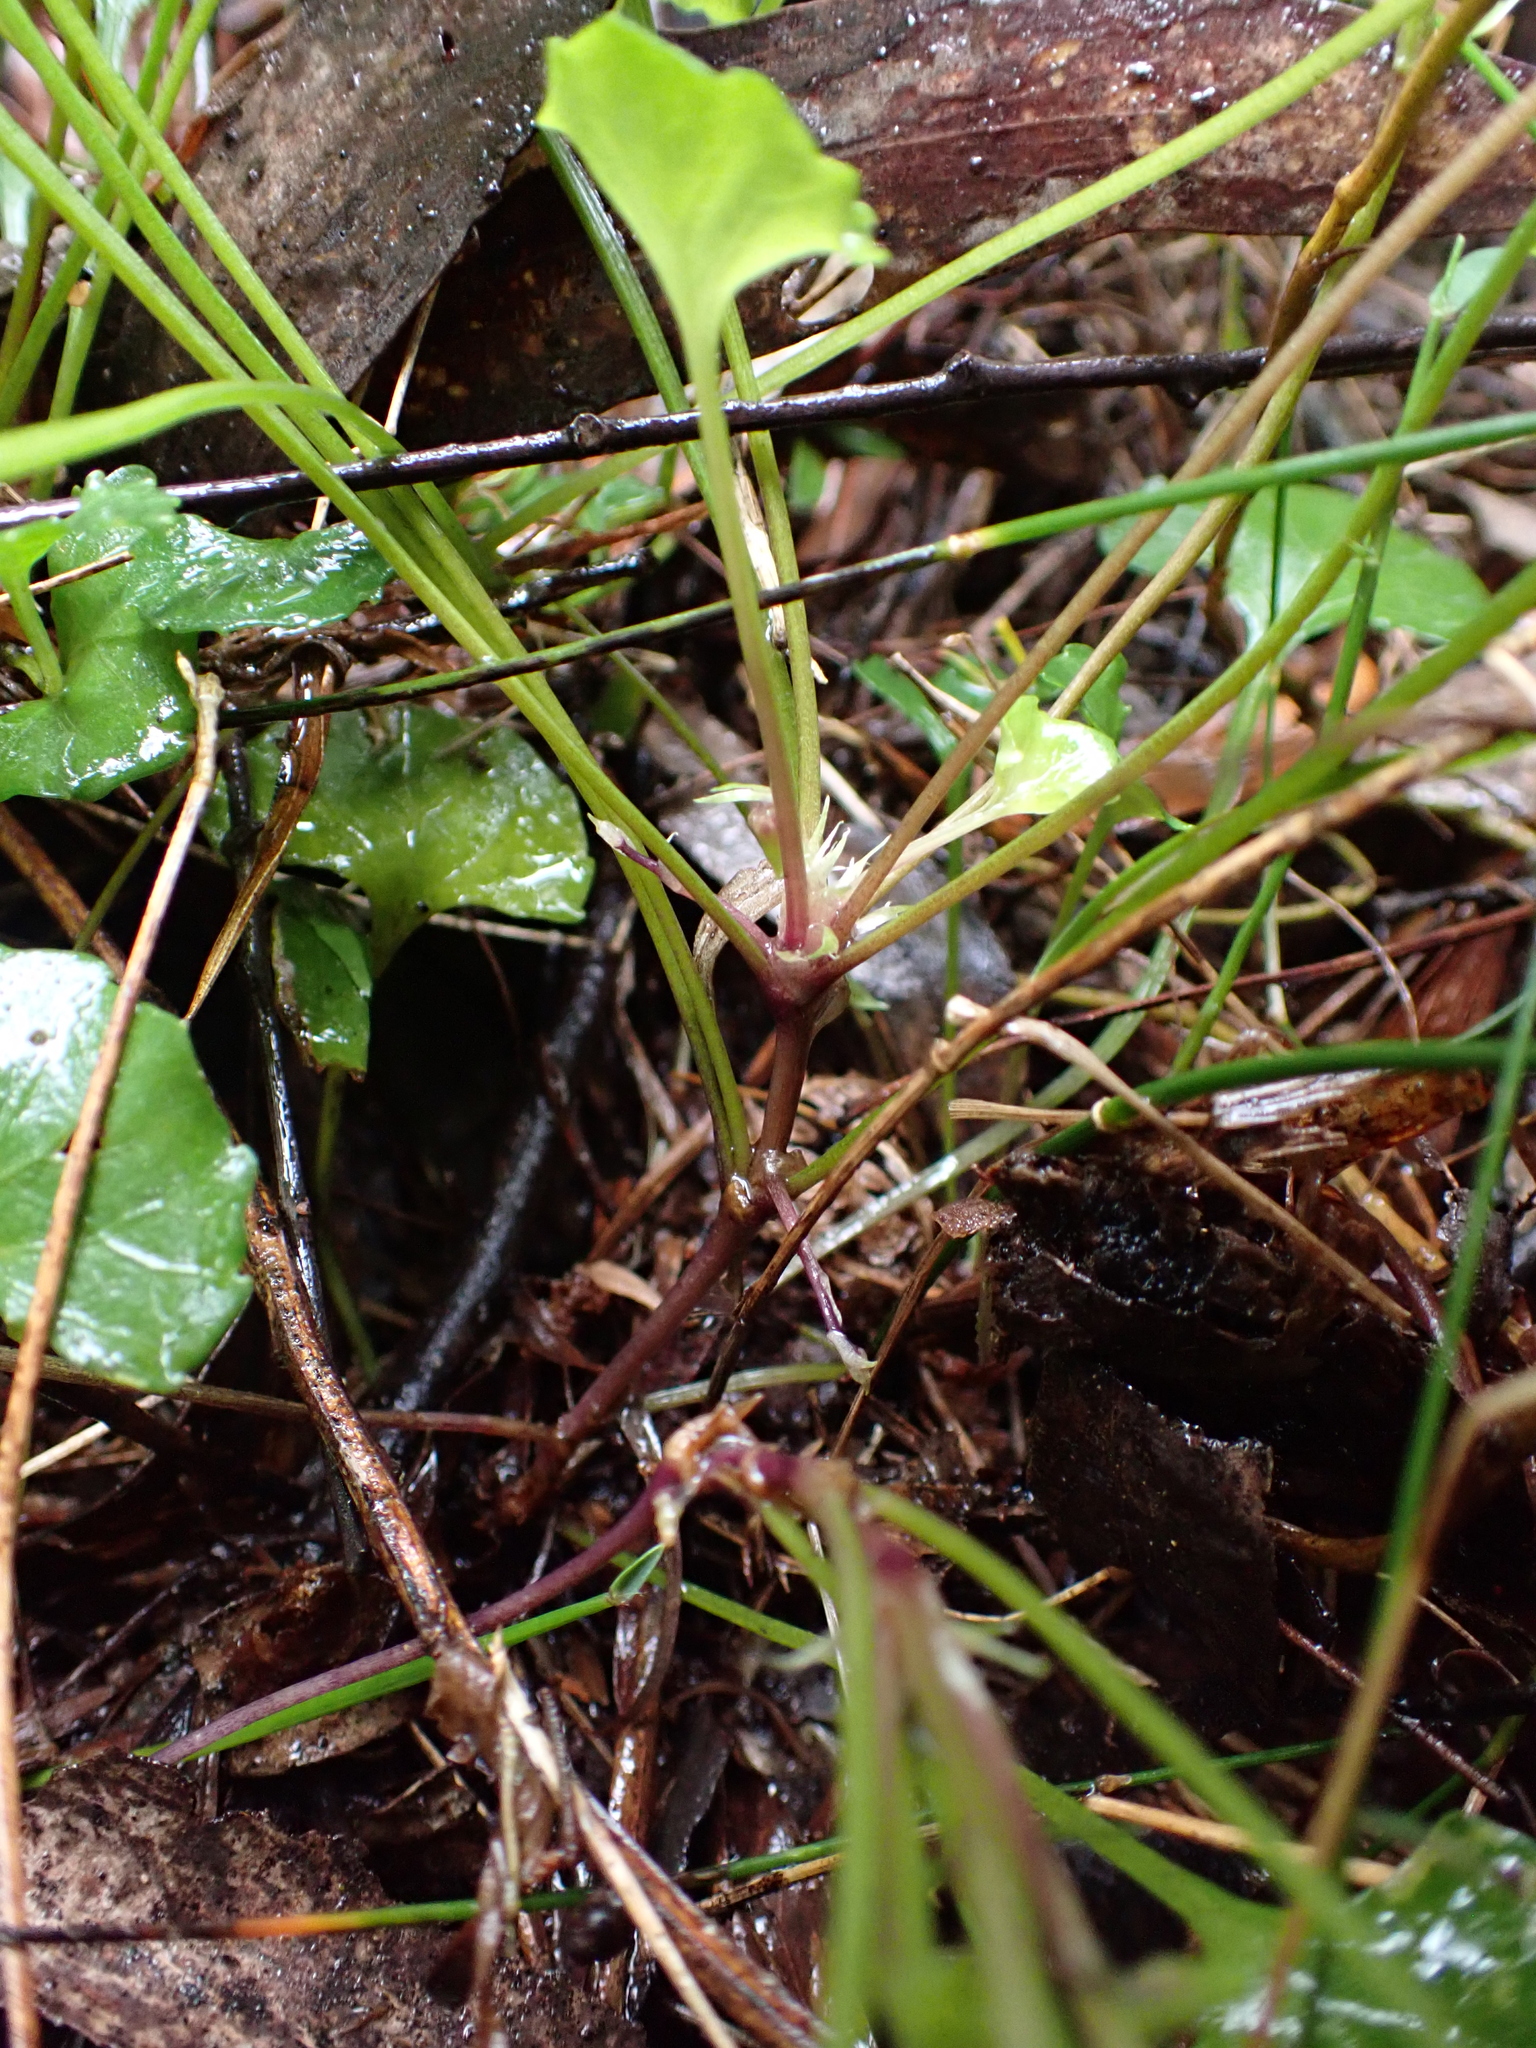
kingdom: Plantae
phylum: Tracheophyta
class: Magnoliopsida
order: Malpighiales
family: Violaceae
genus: Viola
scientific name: Viola hederacea
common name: Australian violet
